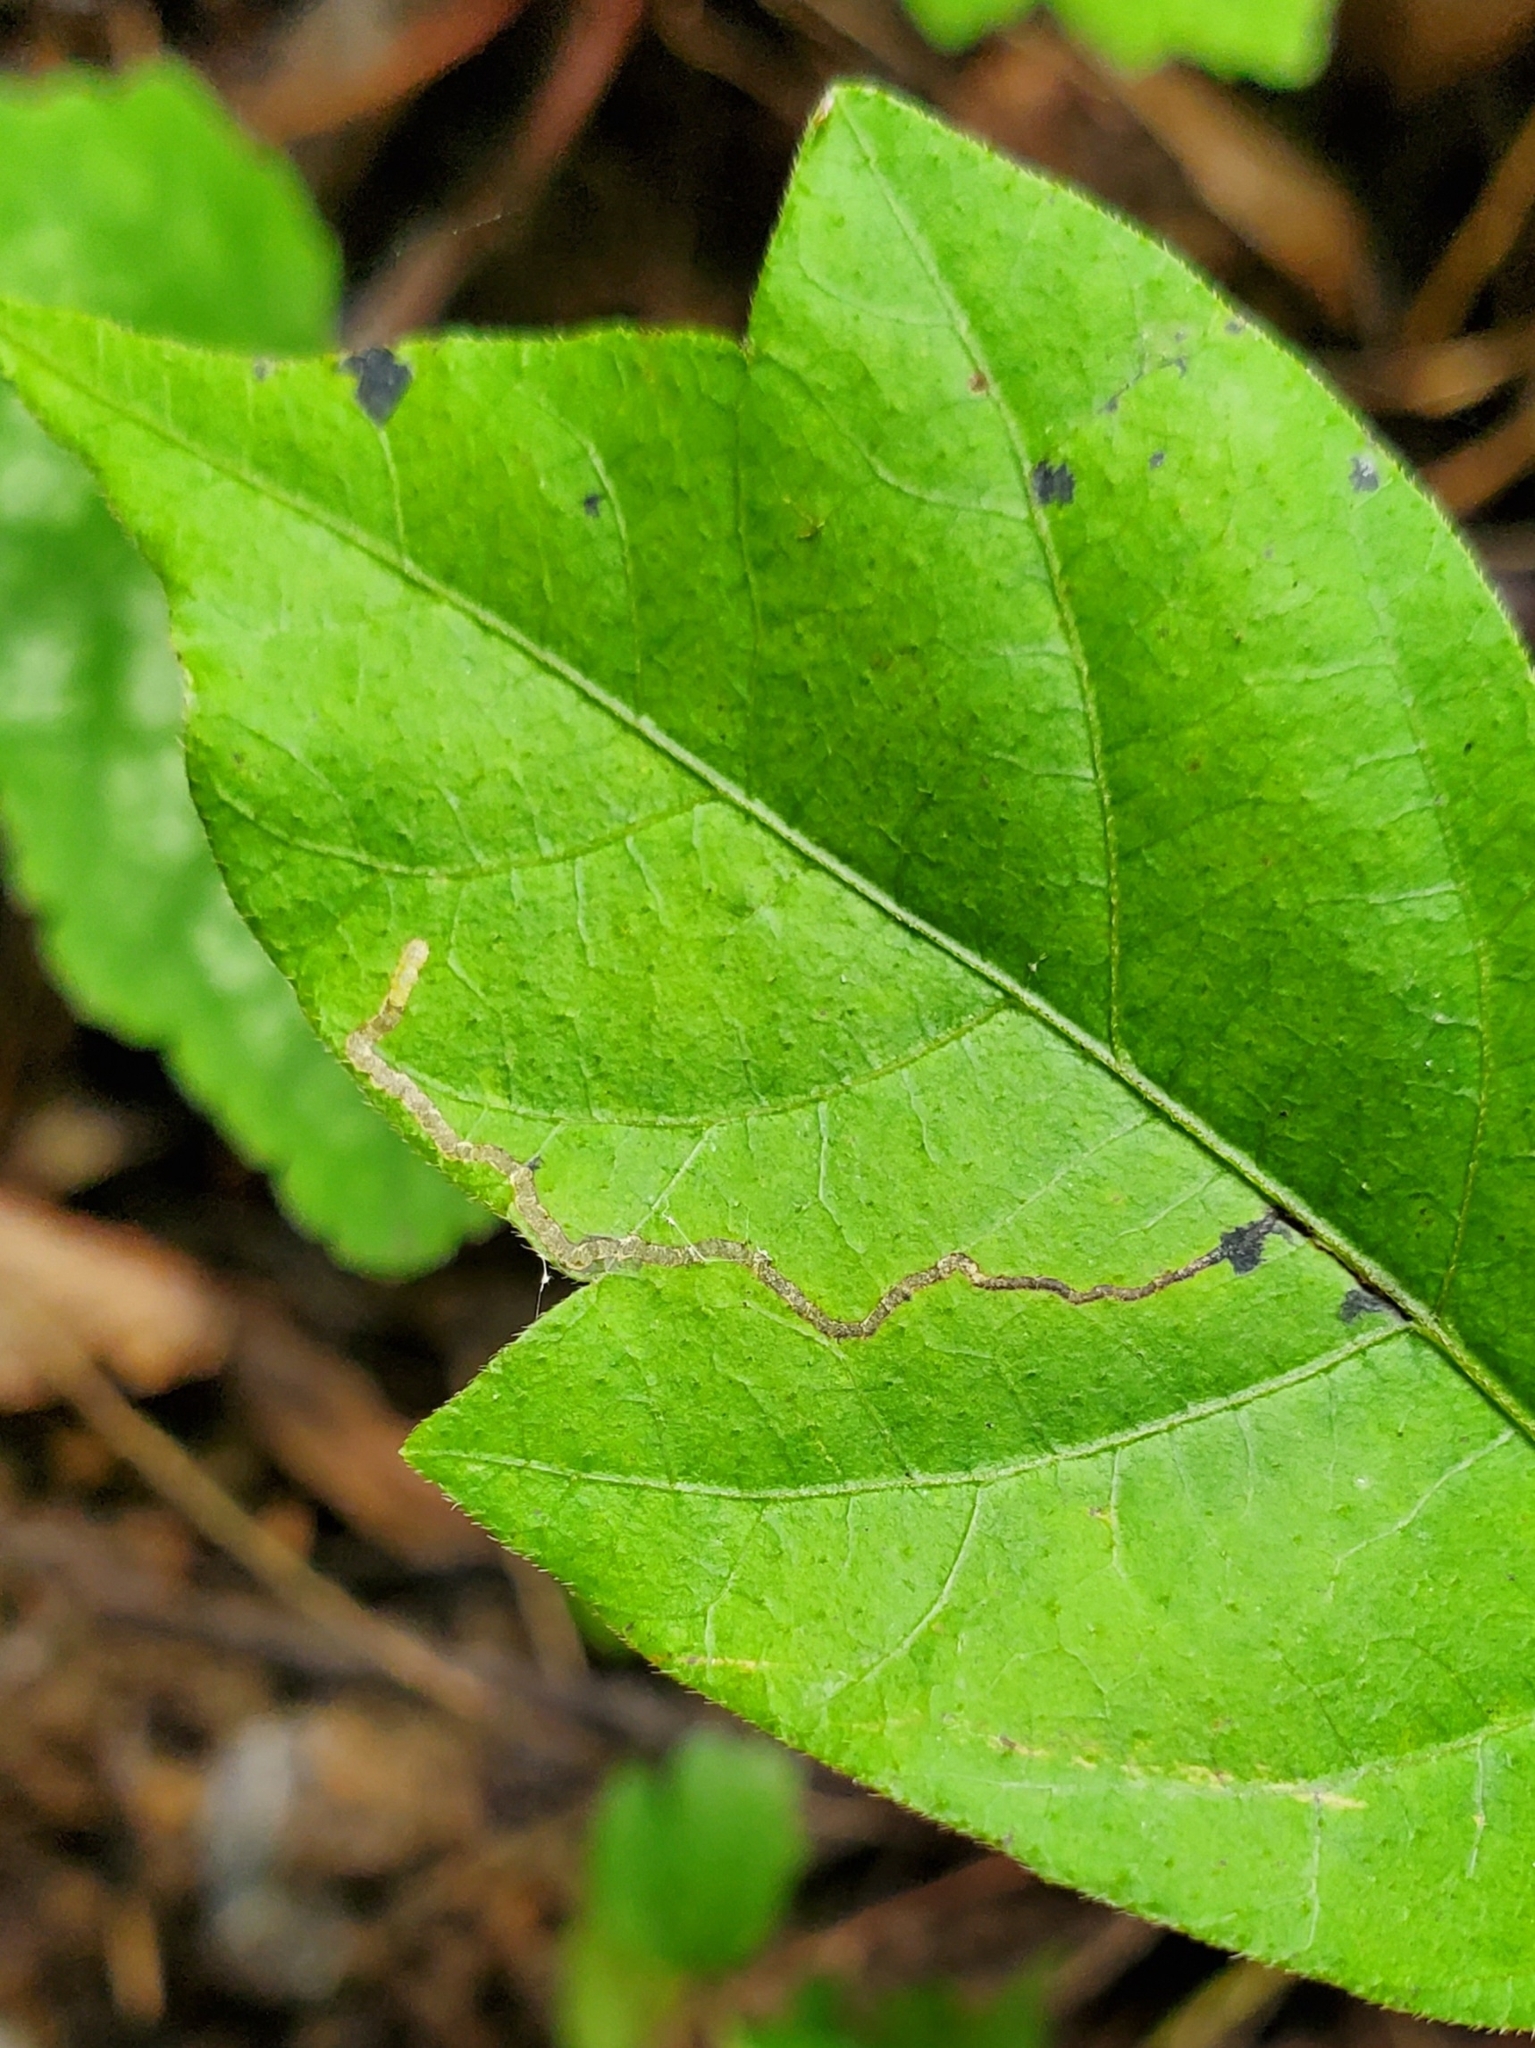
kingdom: Animalia
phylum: Arthropoda
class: Insecta
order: Lepidoptera
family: Nepticulidae
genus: Stigmella
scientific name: Stigmella rhoifoliella
